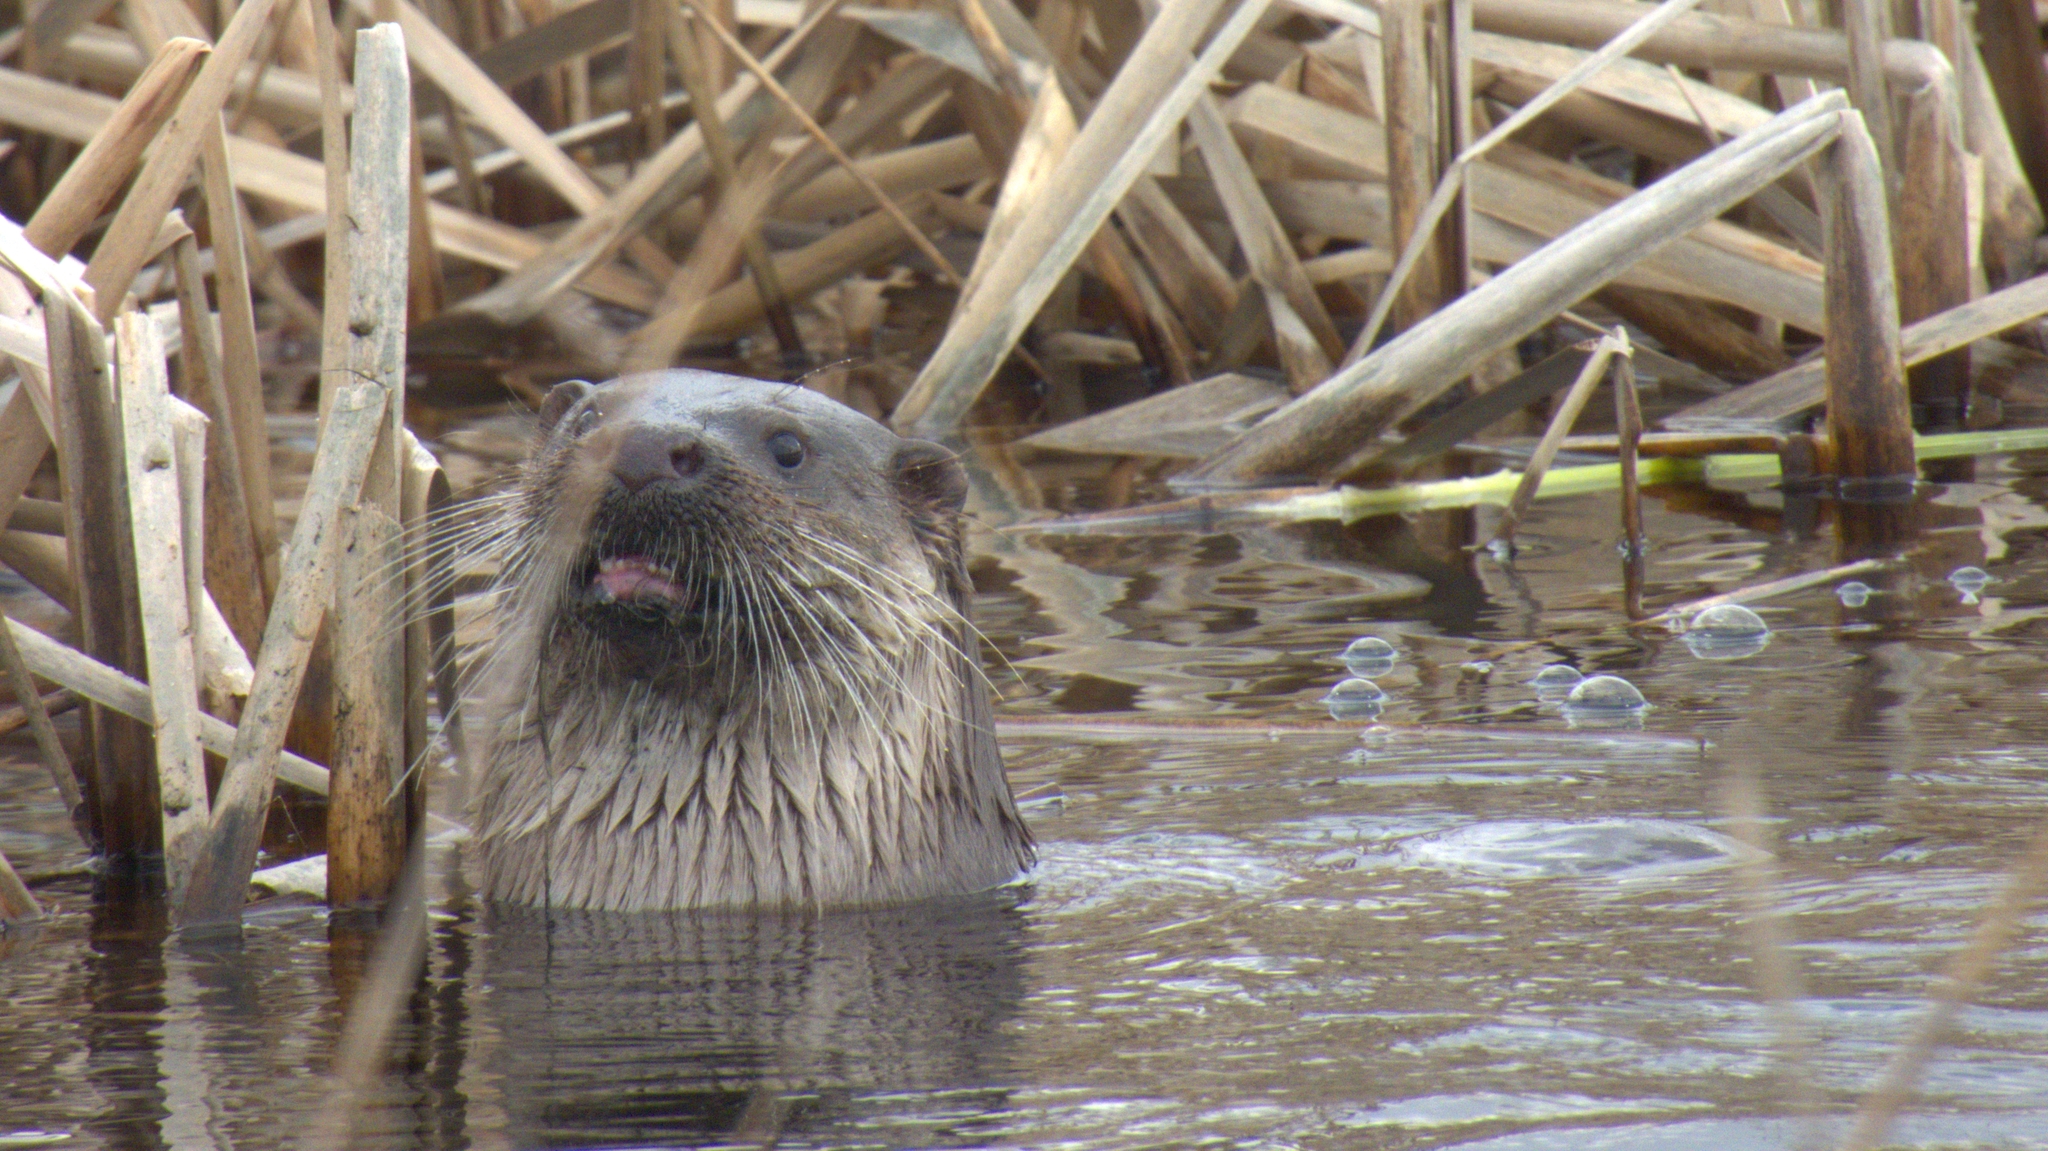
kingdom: Animalia
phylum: Chordata
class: Mammalia
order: Carnivora
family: Mustelidae
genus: Lutra
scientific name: Lutra lutra
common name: European otter
